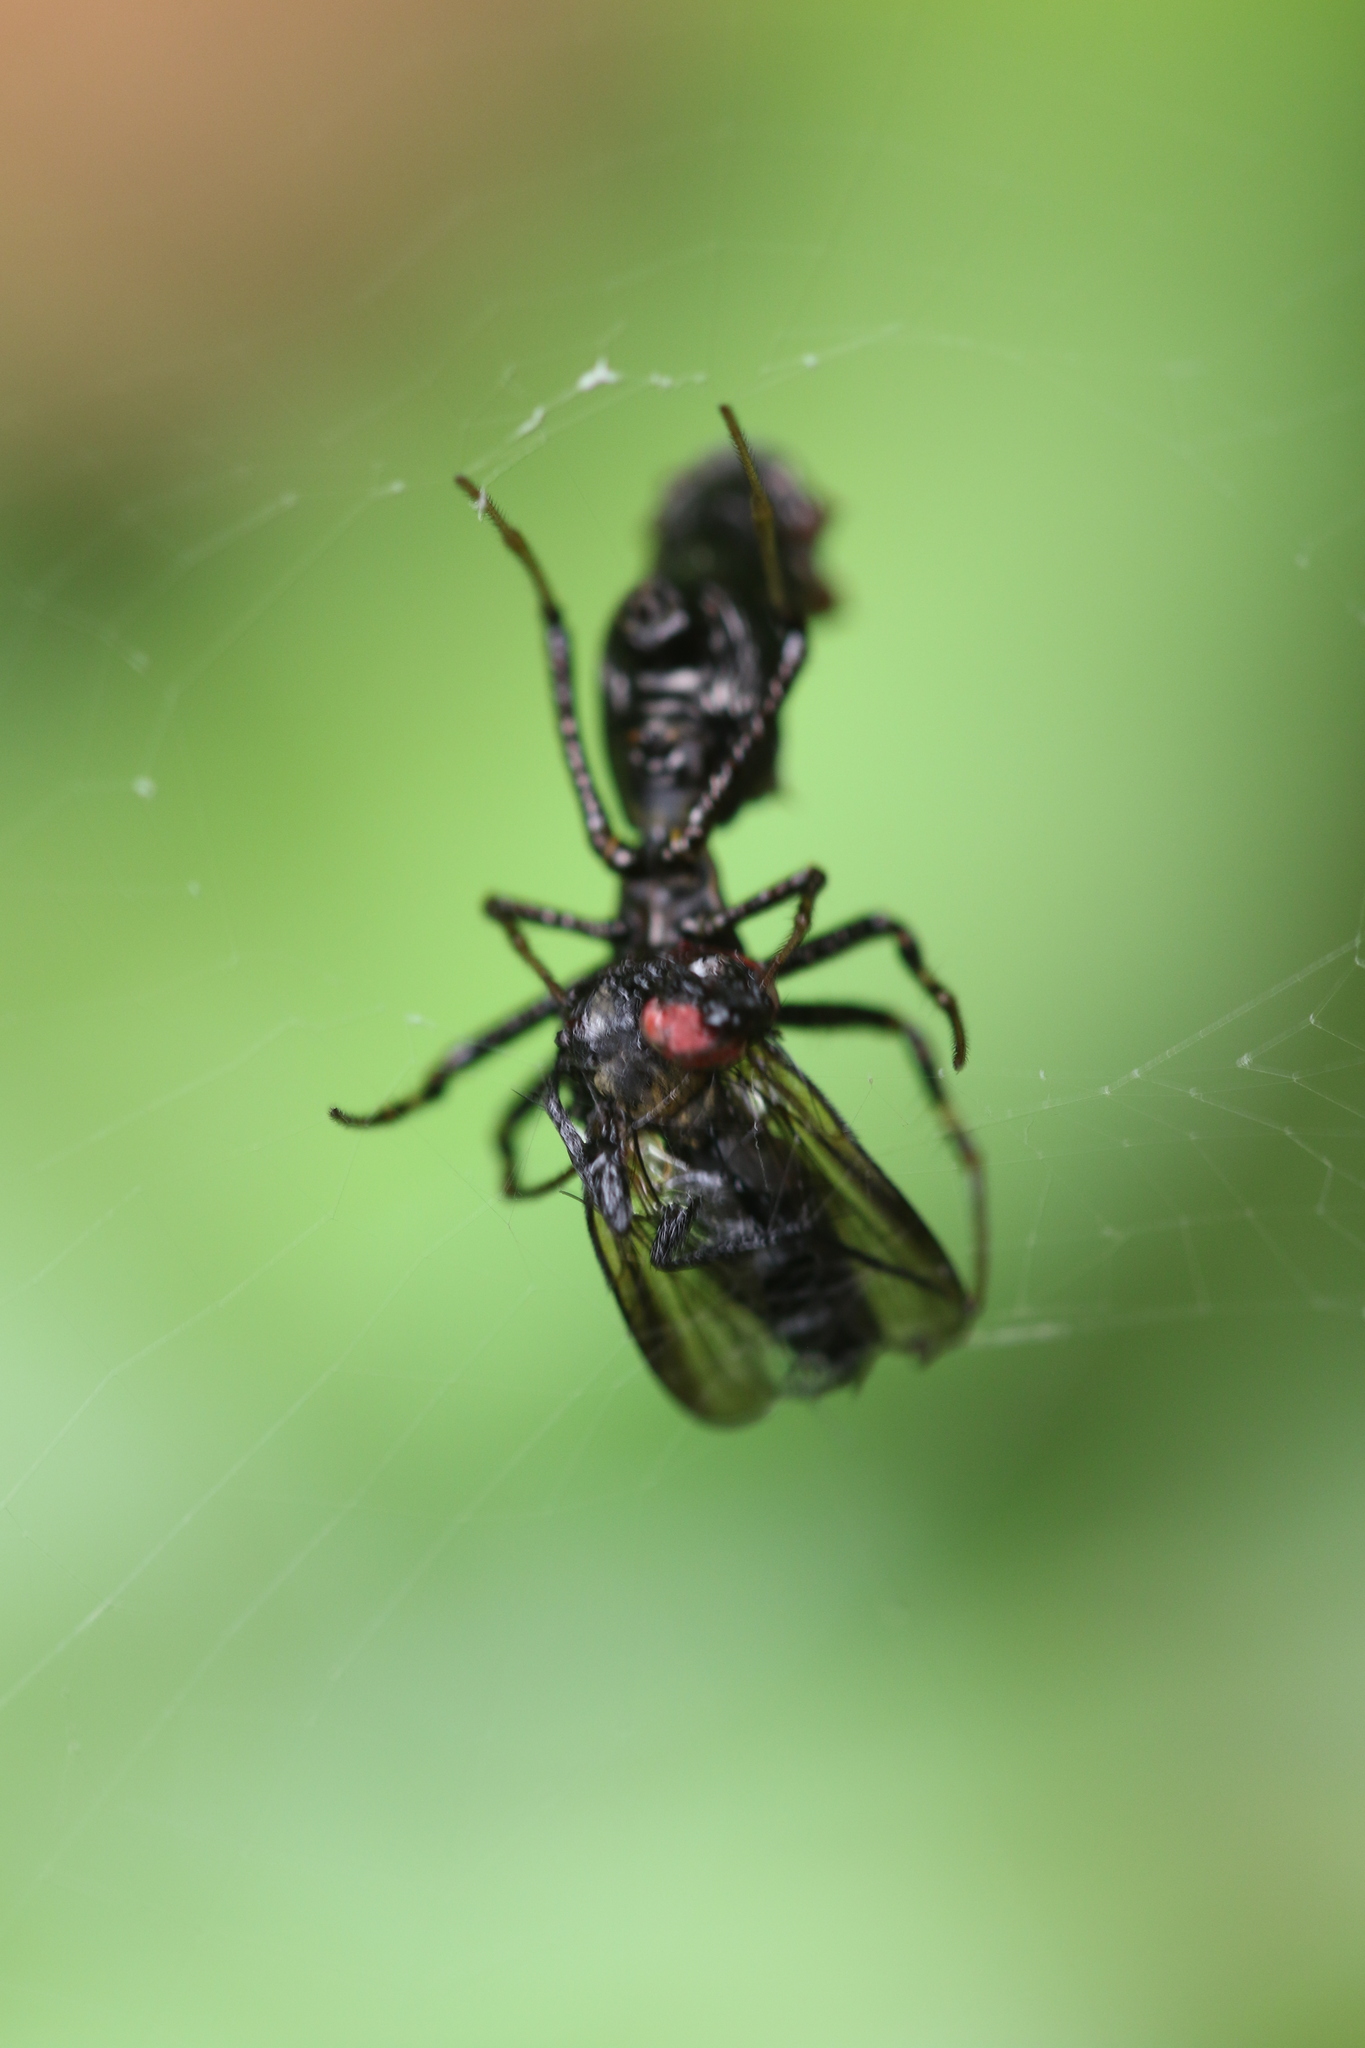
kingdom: Animalia
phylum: Arthropoda
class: Arachnida
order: Araneae
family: Araneidae
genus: Micrathena
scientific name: Micrathena spitzi
